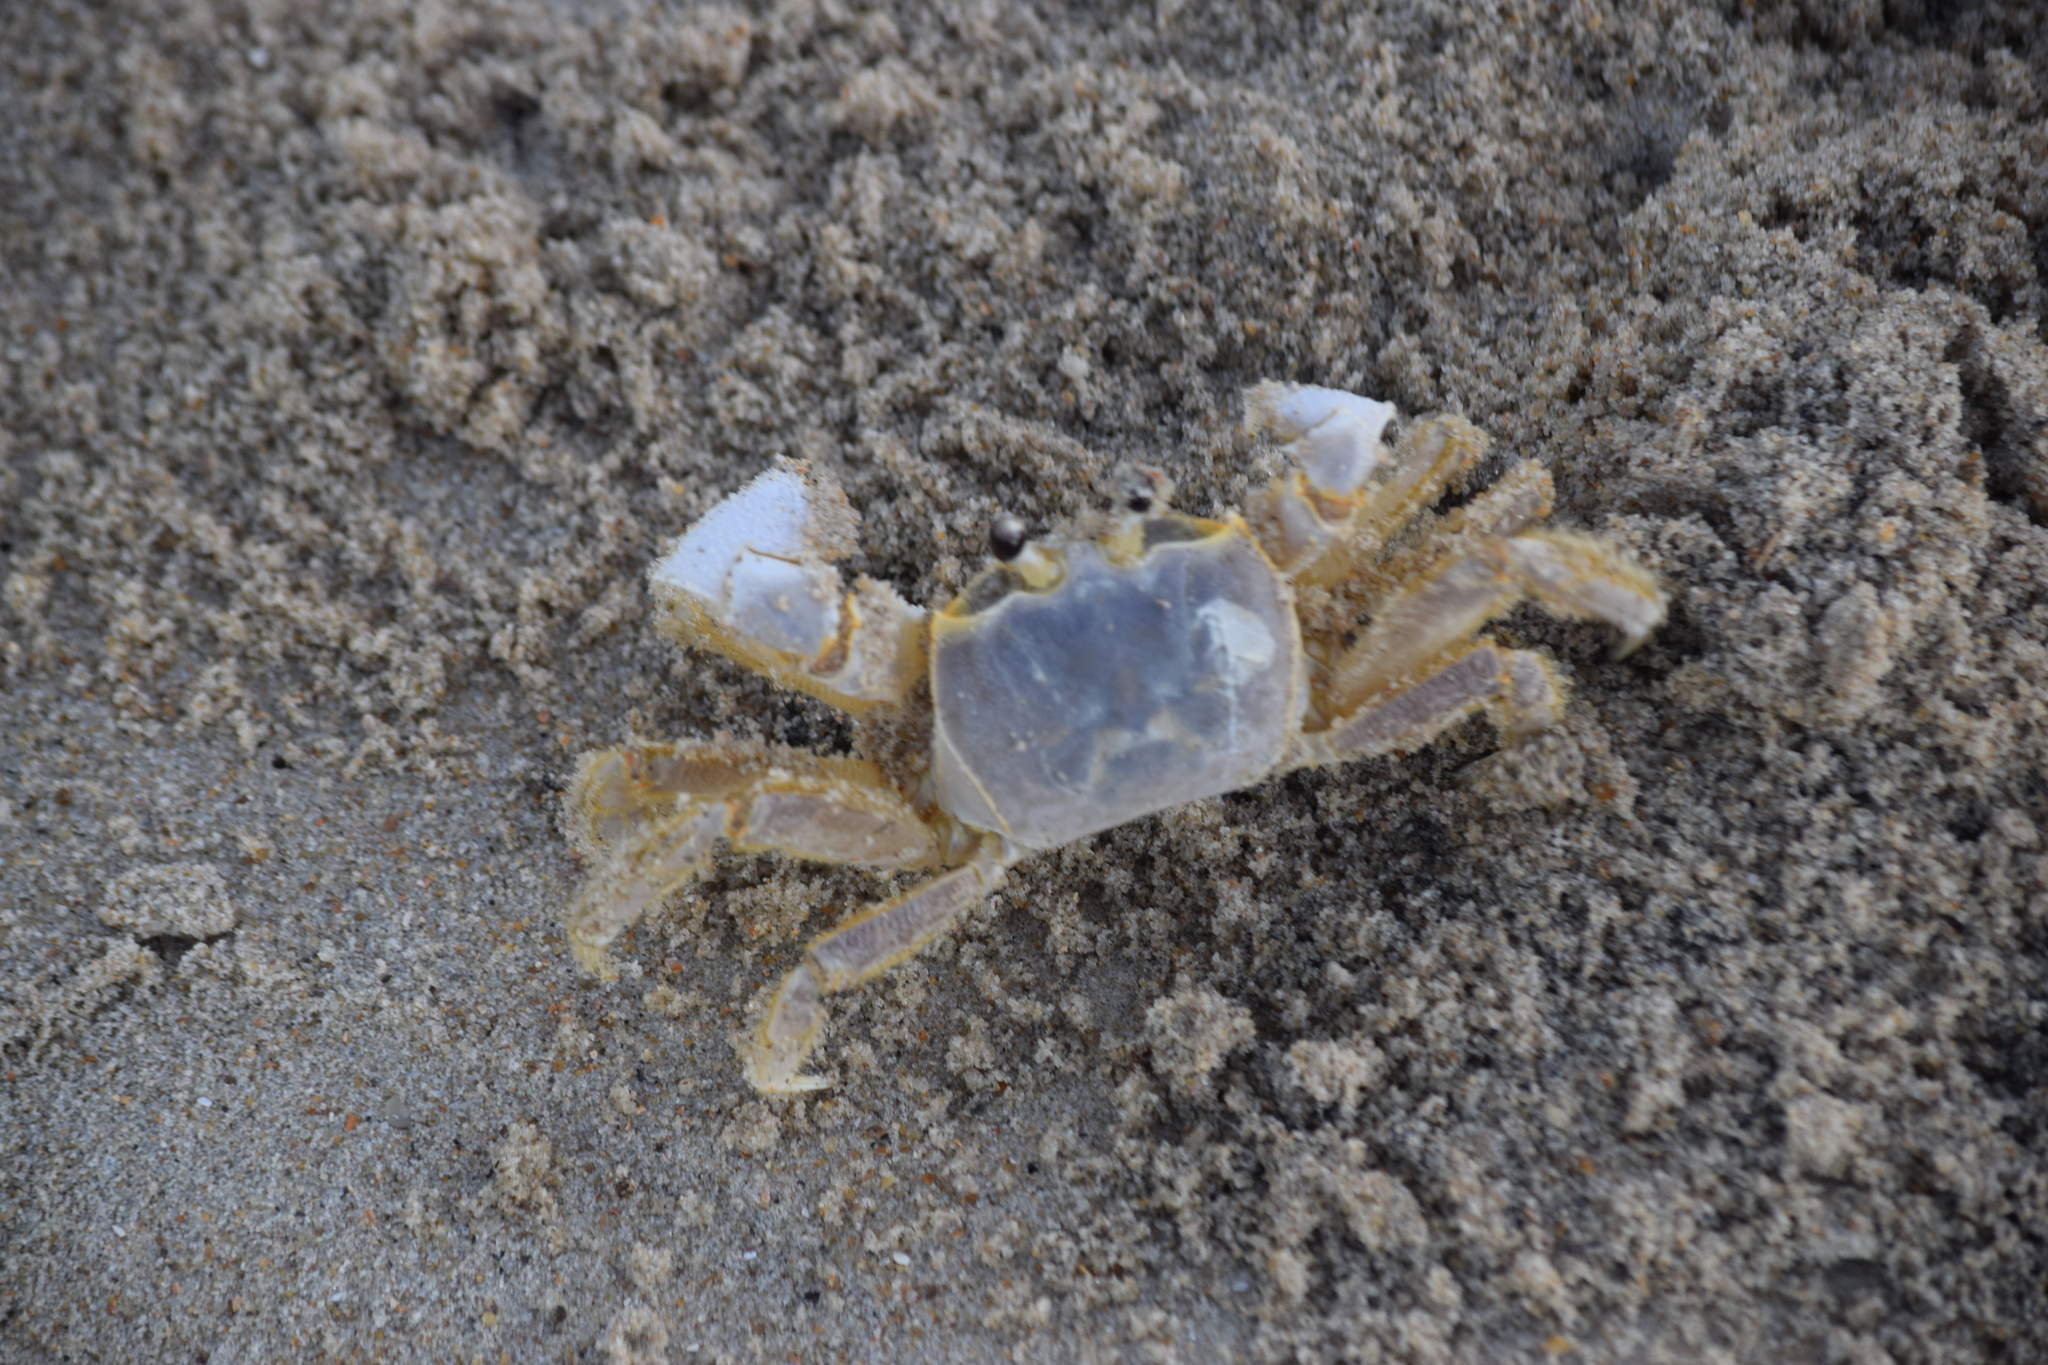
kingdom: Animalia
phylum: Arthropoda
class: Malacostraca
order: Decapoda
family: Ocypodidae
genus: Ocypode
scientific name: Ocypode quadrata
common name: Ghost crab
